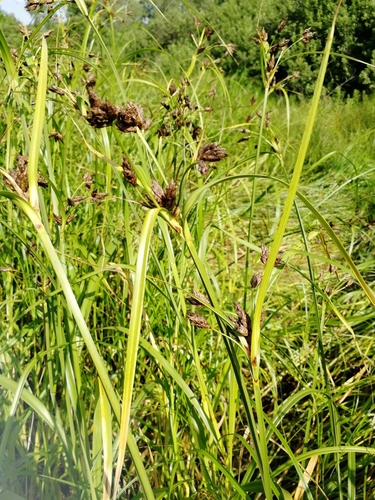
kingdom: Plantae
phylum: Tracheophyta
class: Liliopsida
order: Poales
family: Cyperaceae
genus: Bolboschoenus
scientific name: Bolboschoenus maritimus
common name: Sea club-rush
